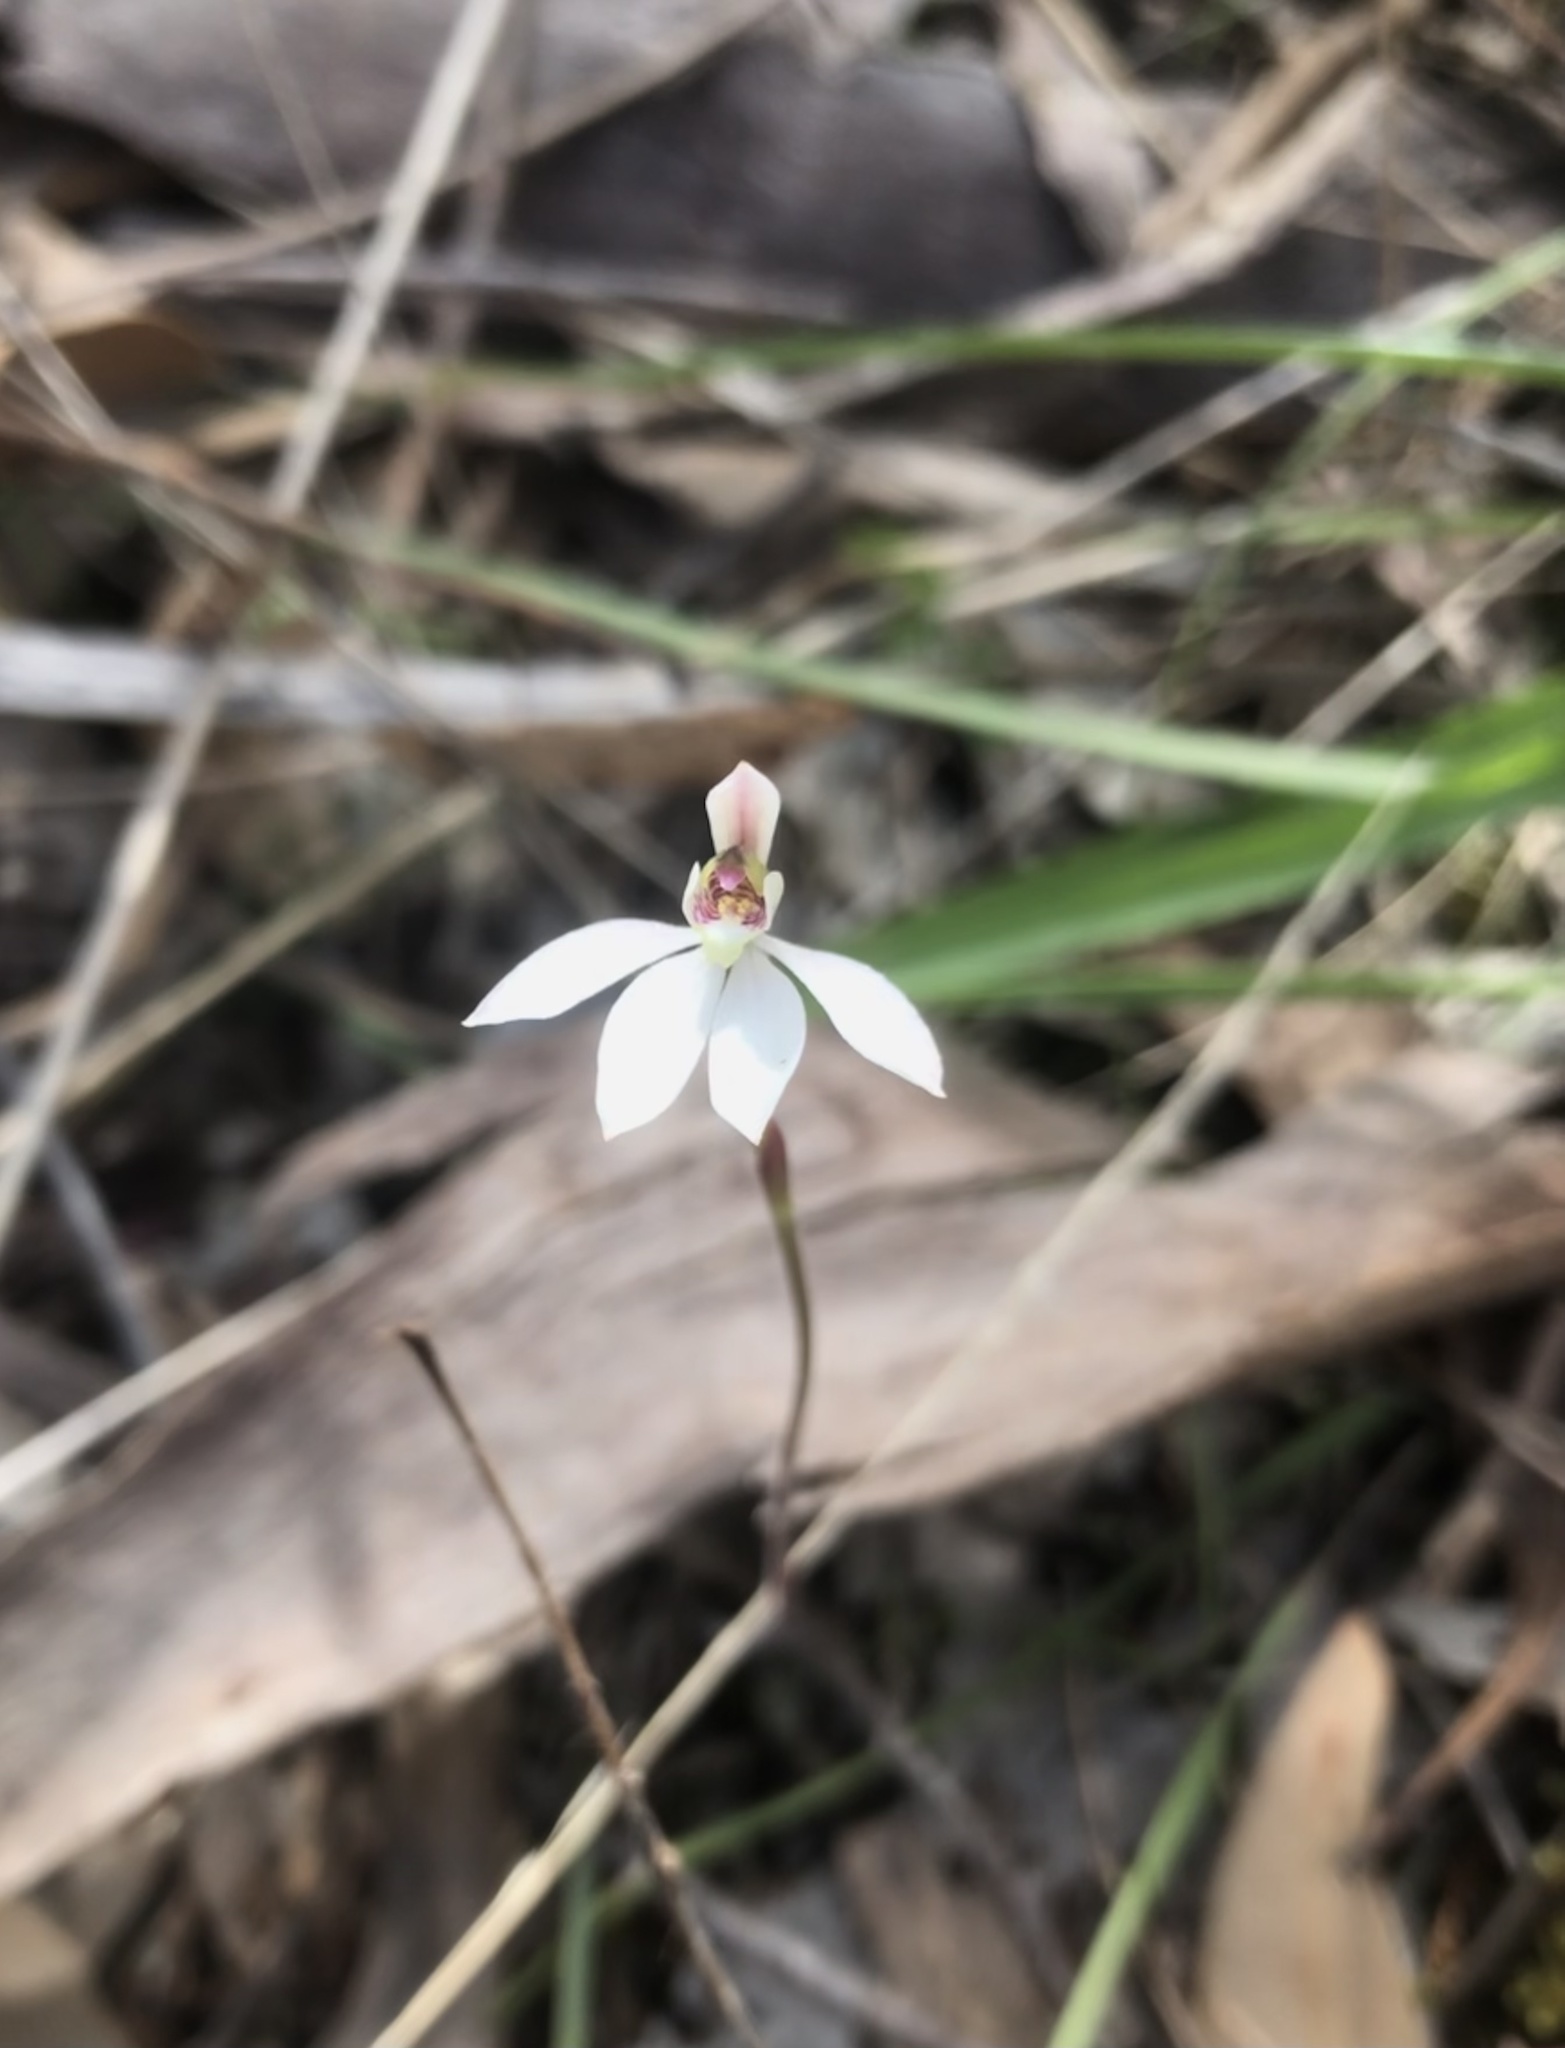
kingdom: Plantae
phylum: Tracheophyta
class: Liliopsida
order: Asparagales
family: Orchidaceae
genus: Caladenia
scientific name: Caladenia prolata
